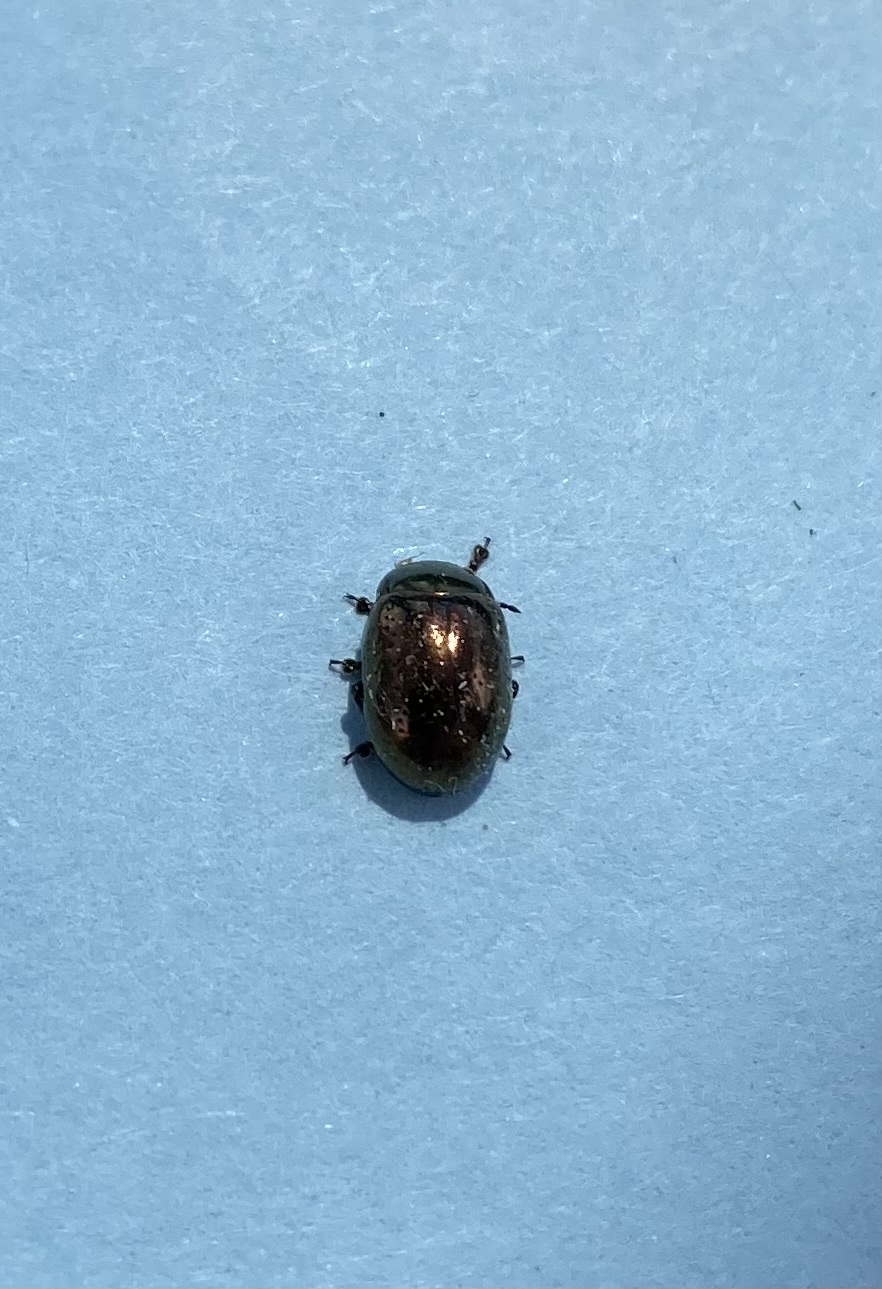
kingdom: Animalia
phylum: Arthropoda
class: Insecta
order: Coleoptera
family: Chrysomelidae
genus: Chrysolina
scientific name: Chrysolina hyperici
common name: St. johnswort beetle
